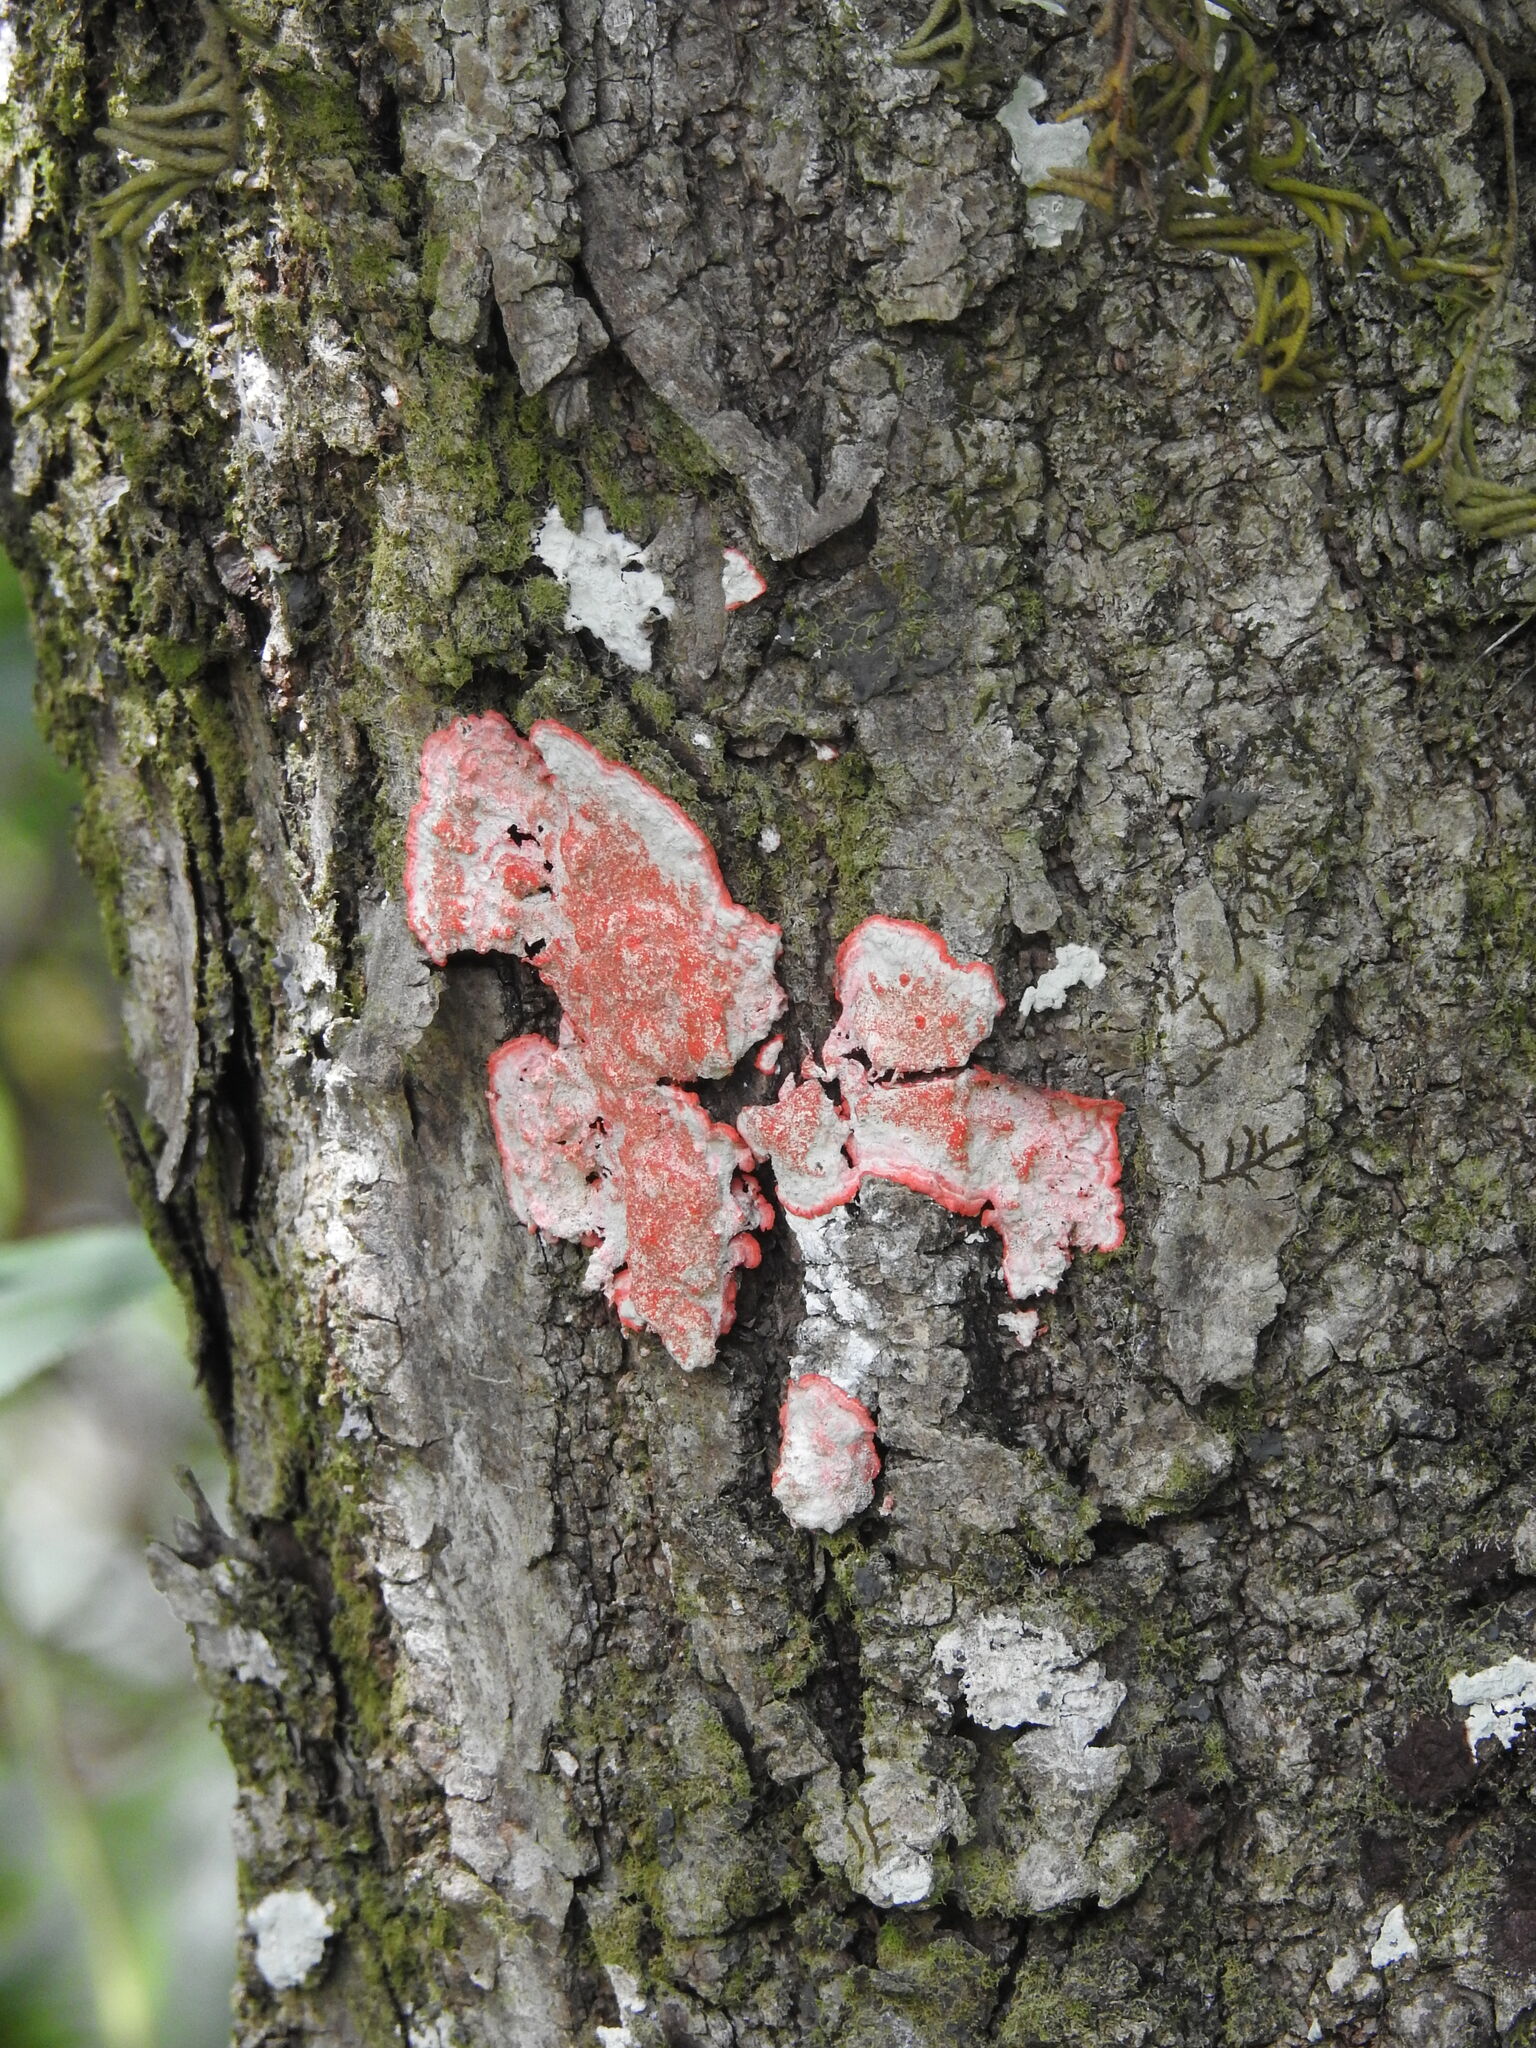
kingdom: Fungi
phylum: Ascomycota
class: Arthoniomycetes
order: Arthoniales
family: Arthoniaceae
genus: Herpothallon
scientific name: Herpothallon rubrocinctum
